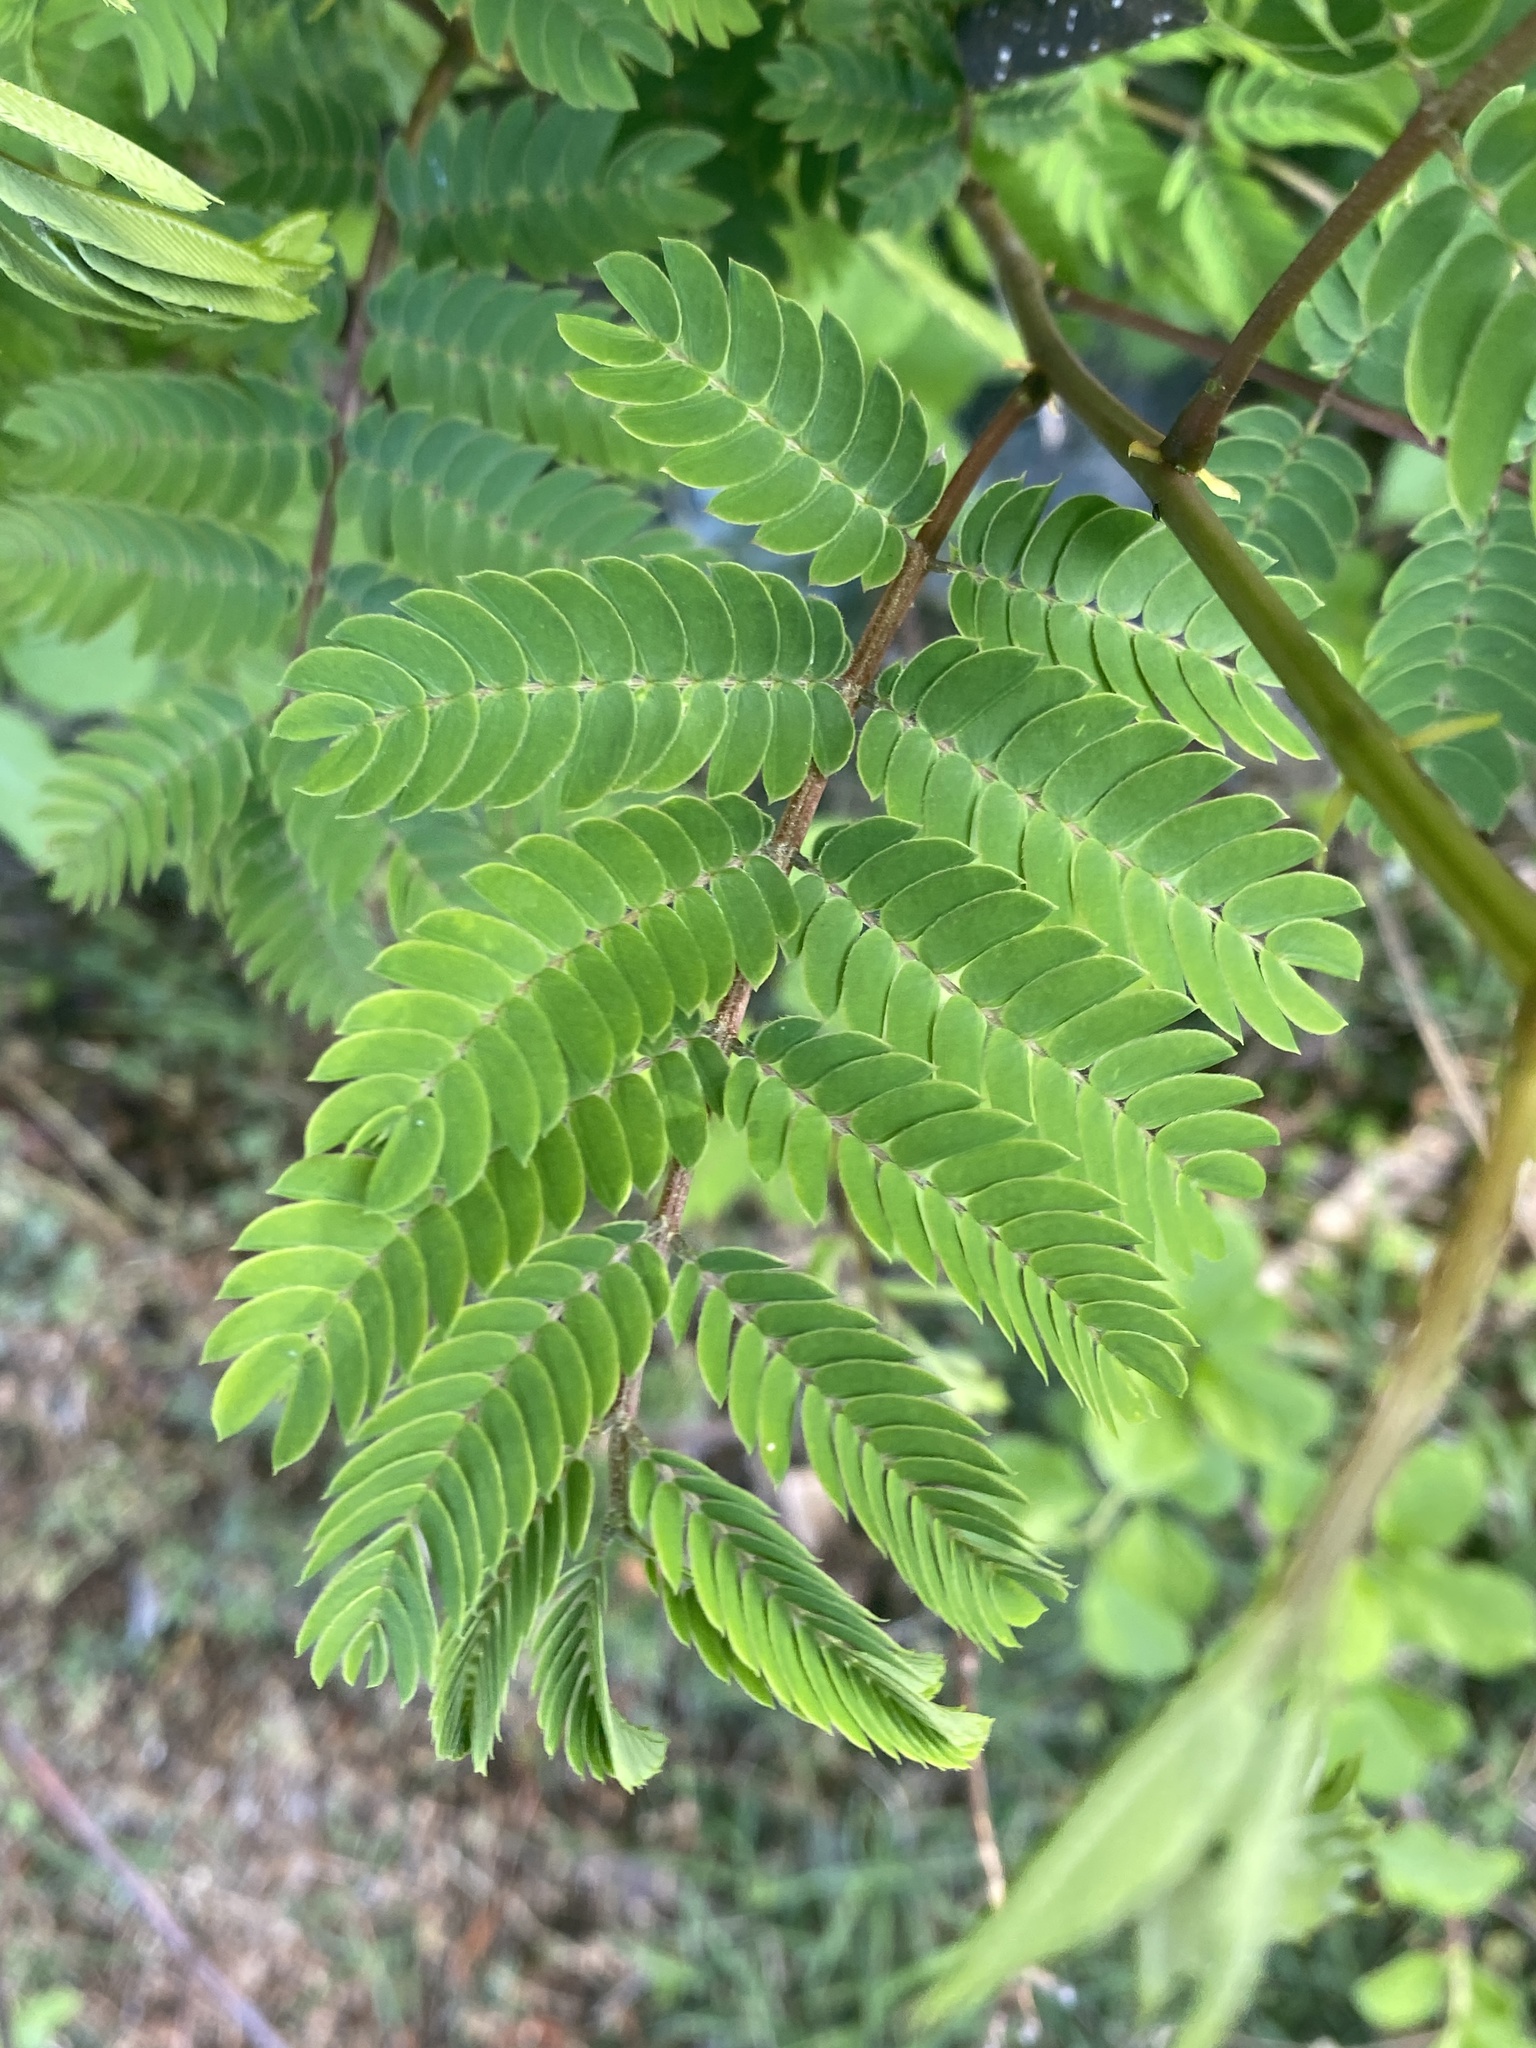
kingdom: Plantae
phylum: Tracheophyta
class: Magnoliopsida
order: Fabales
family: Fabaceae
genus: Albizia
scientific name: Albizia julibrissin
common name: Silktree
